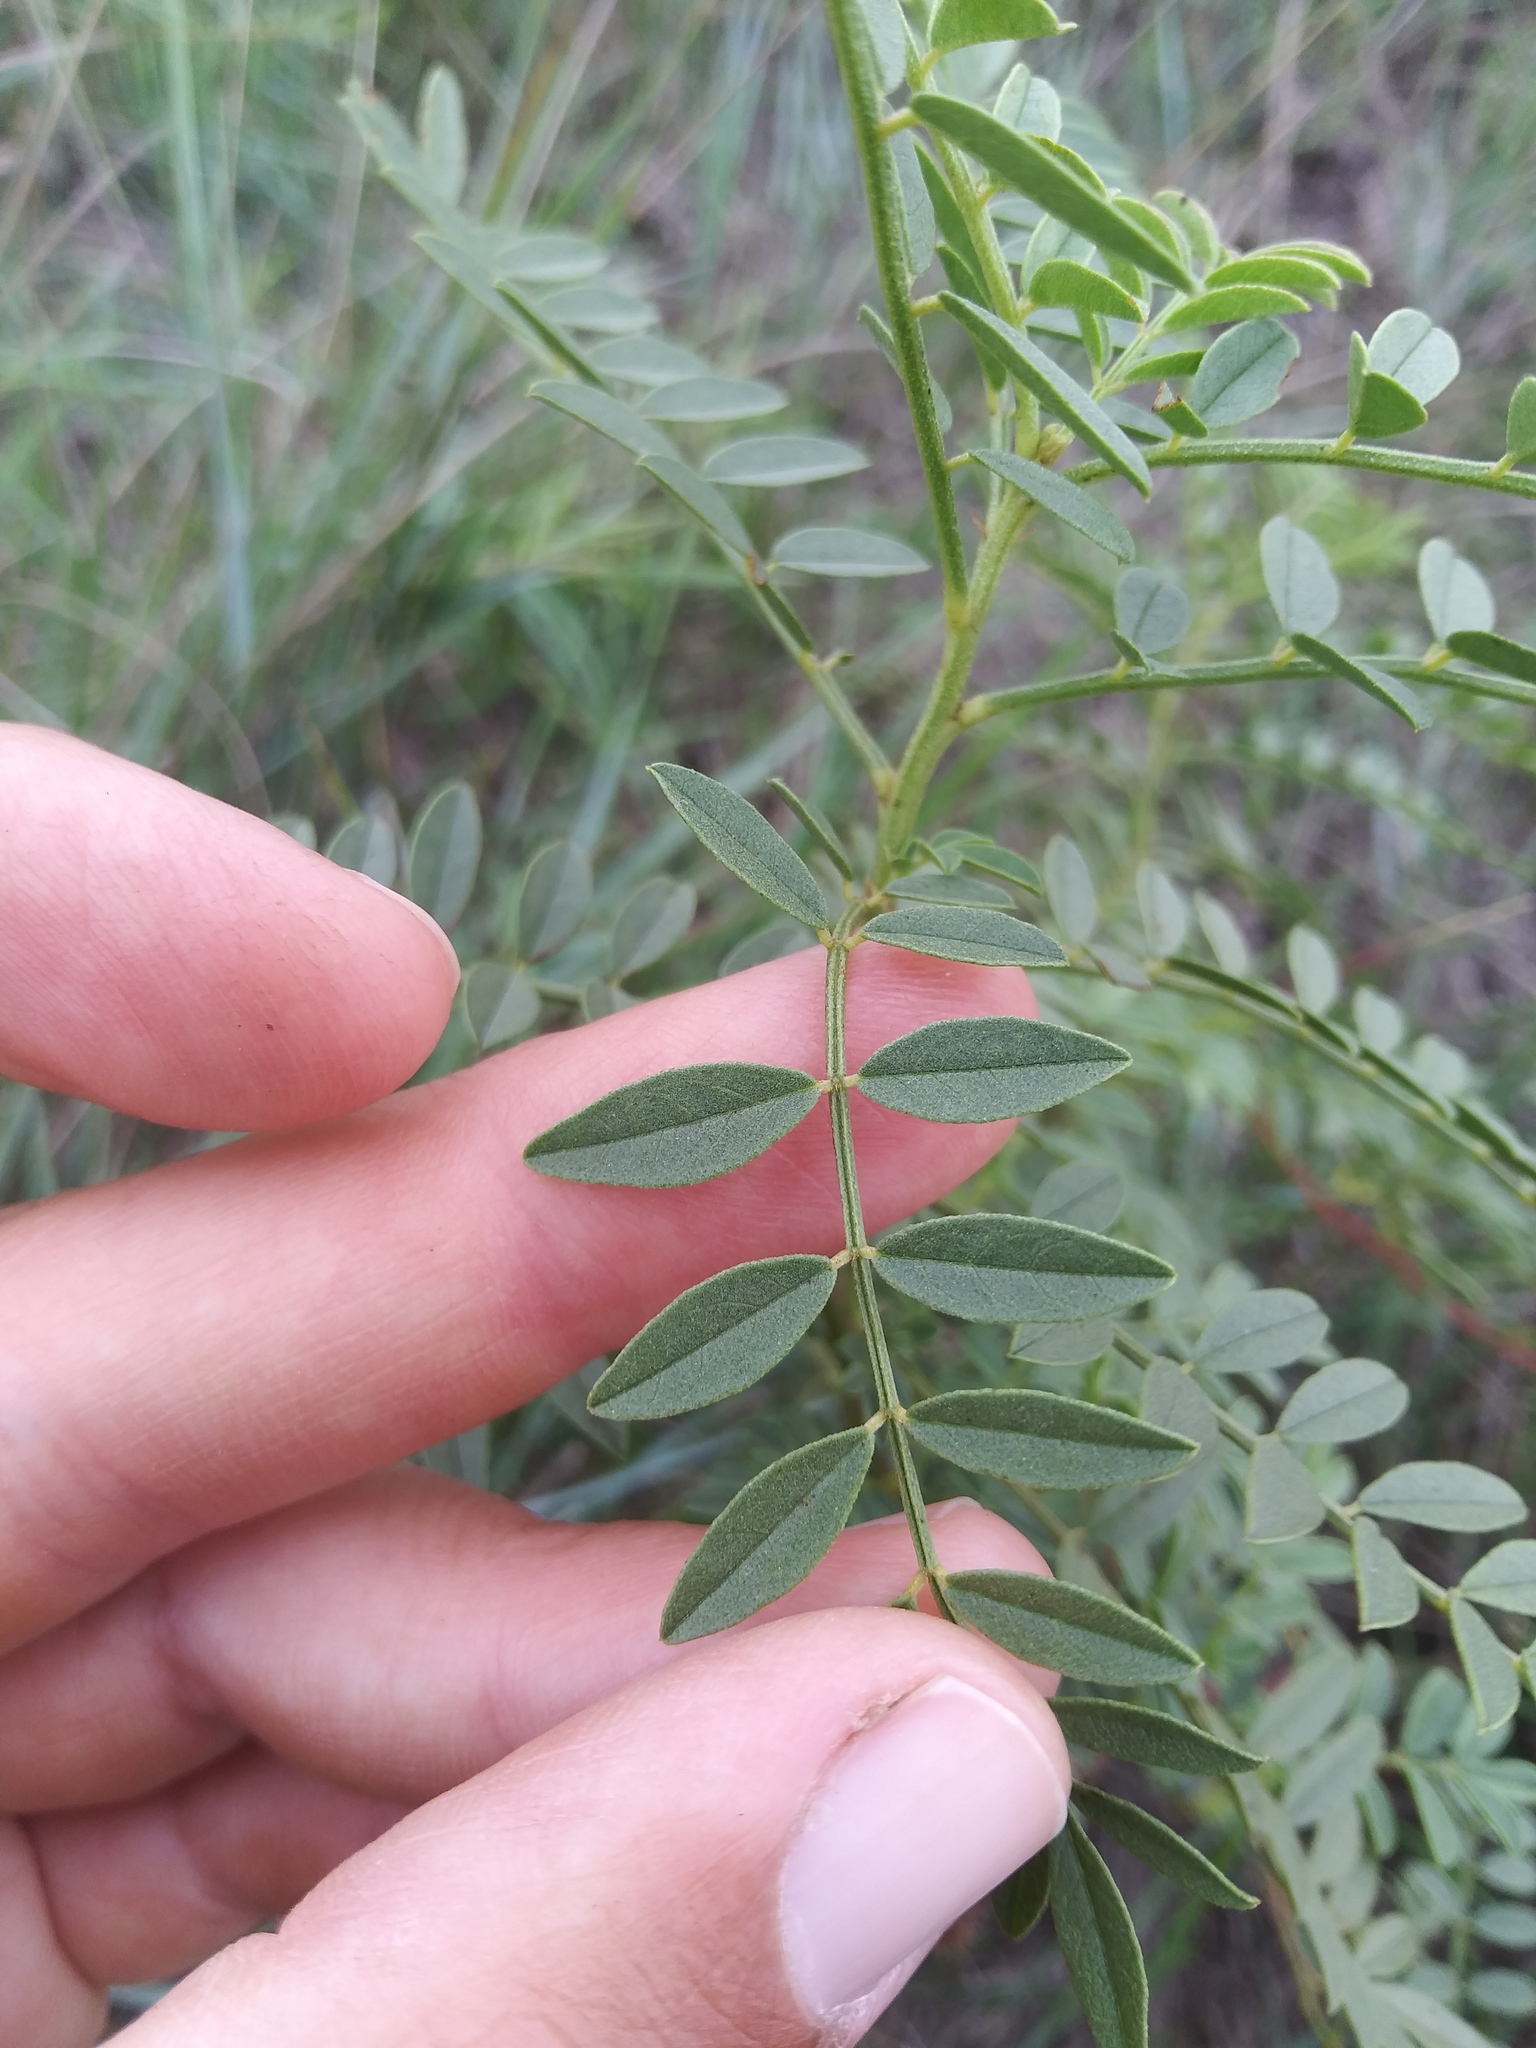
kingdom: Plantae
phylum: Tracheophyta
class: Magnoliopsida
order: Fabales
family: Fabaceae
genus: Glycyrrhiza
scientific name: Glycyrrhiza lepidota
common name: American liquorice
